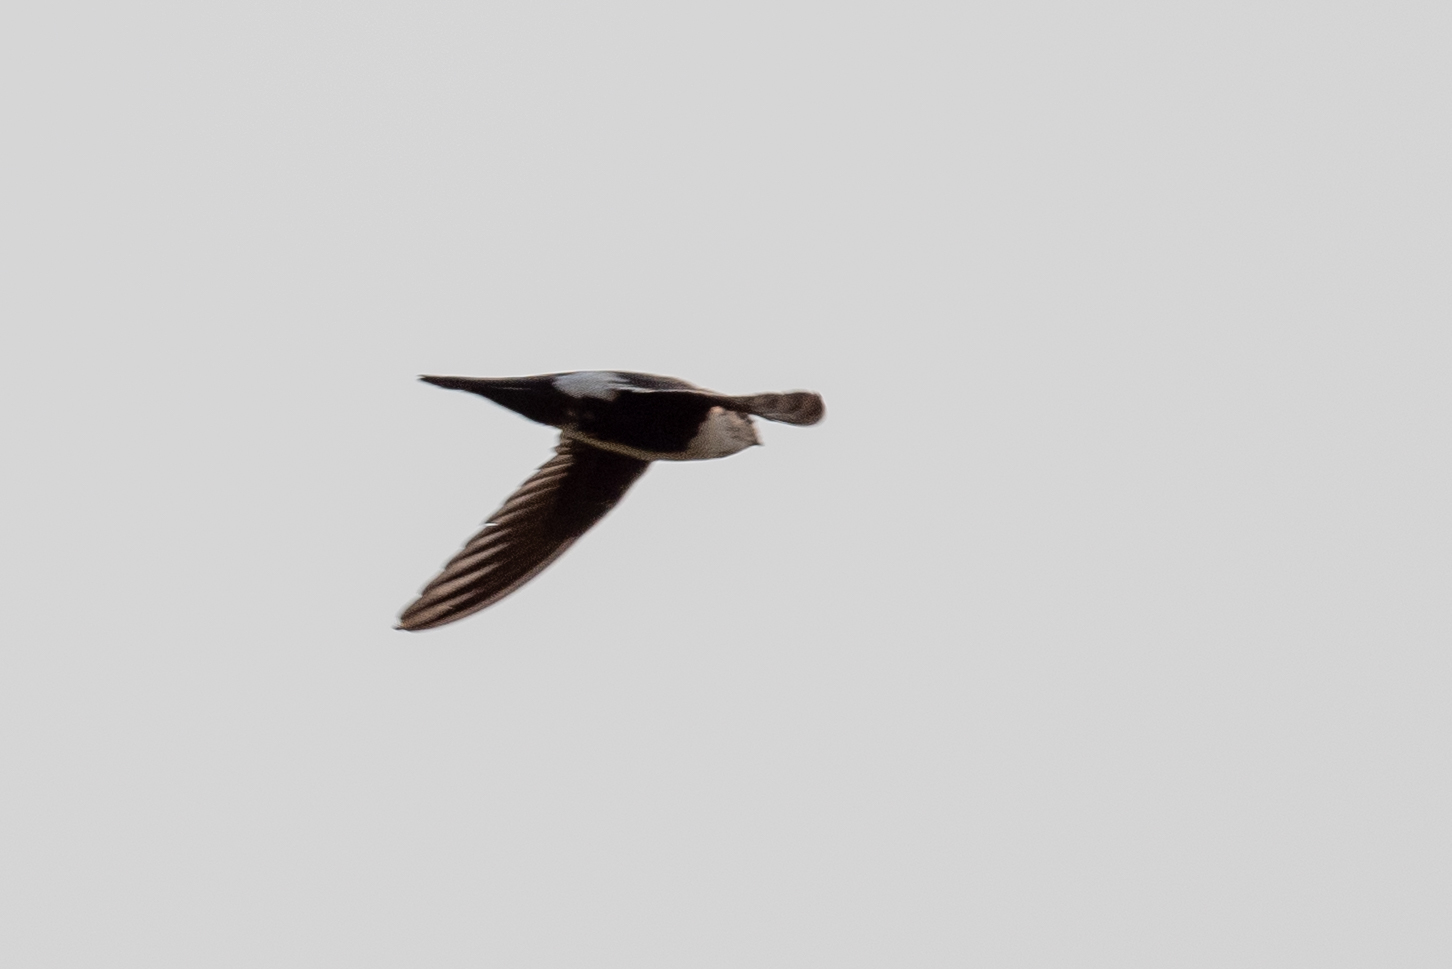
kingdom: Animalia
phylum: Chordata
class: Aves
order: Apodiformes
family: Apodidae
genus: Aeronautes
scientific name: Aeronautes saxatalis
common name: White-throated swift
